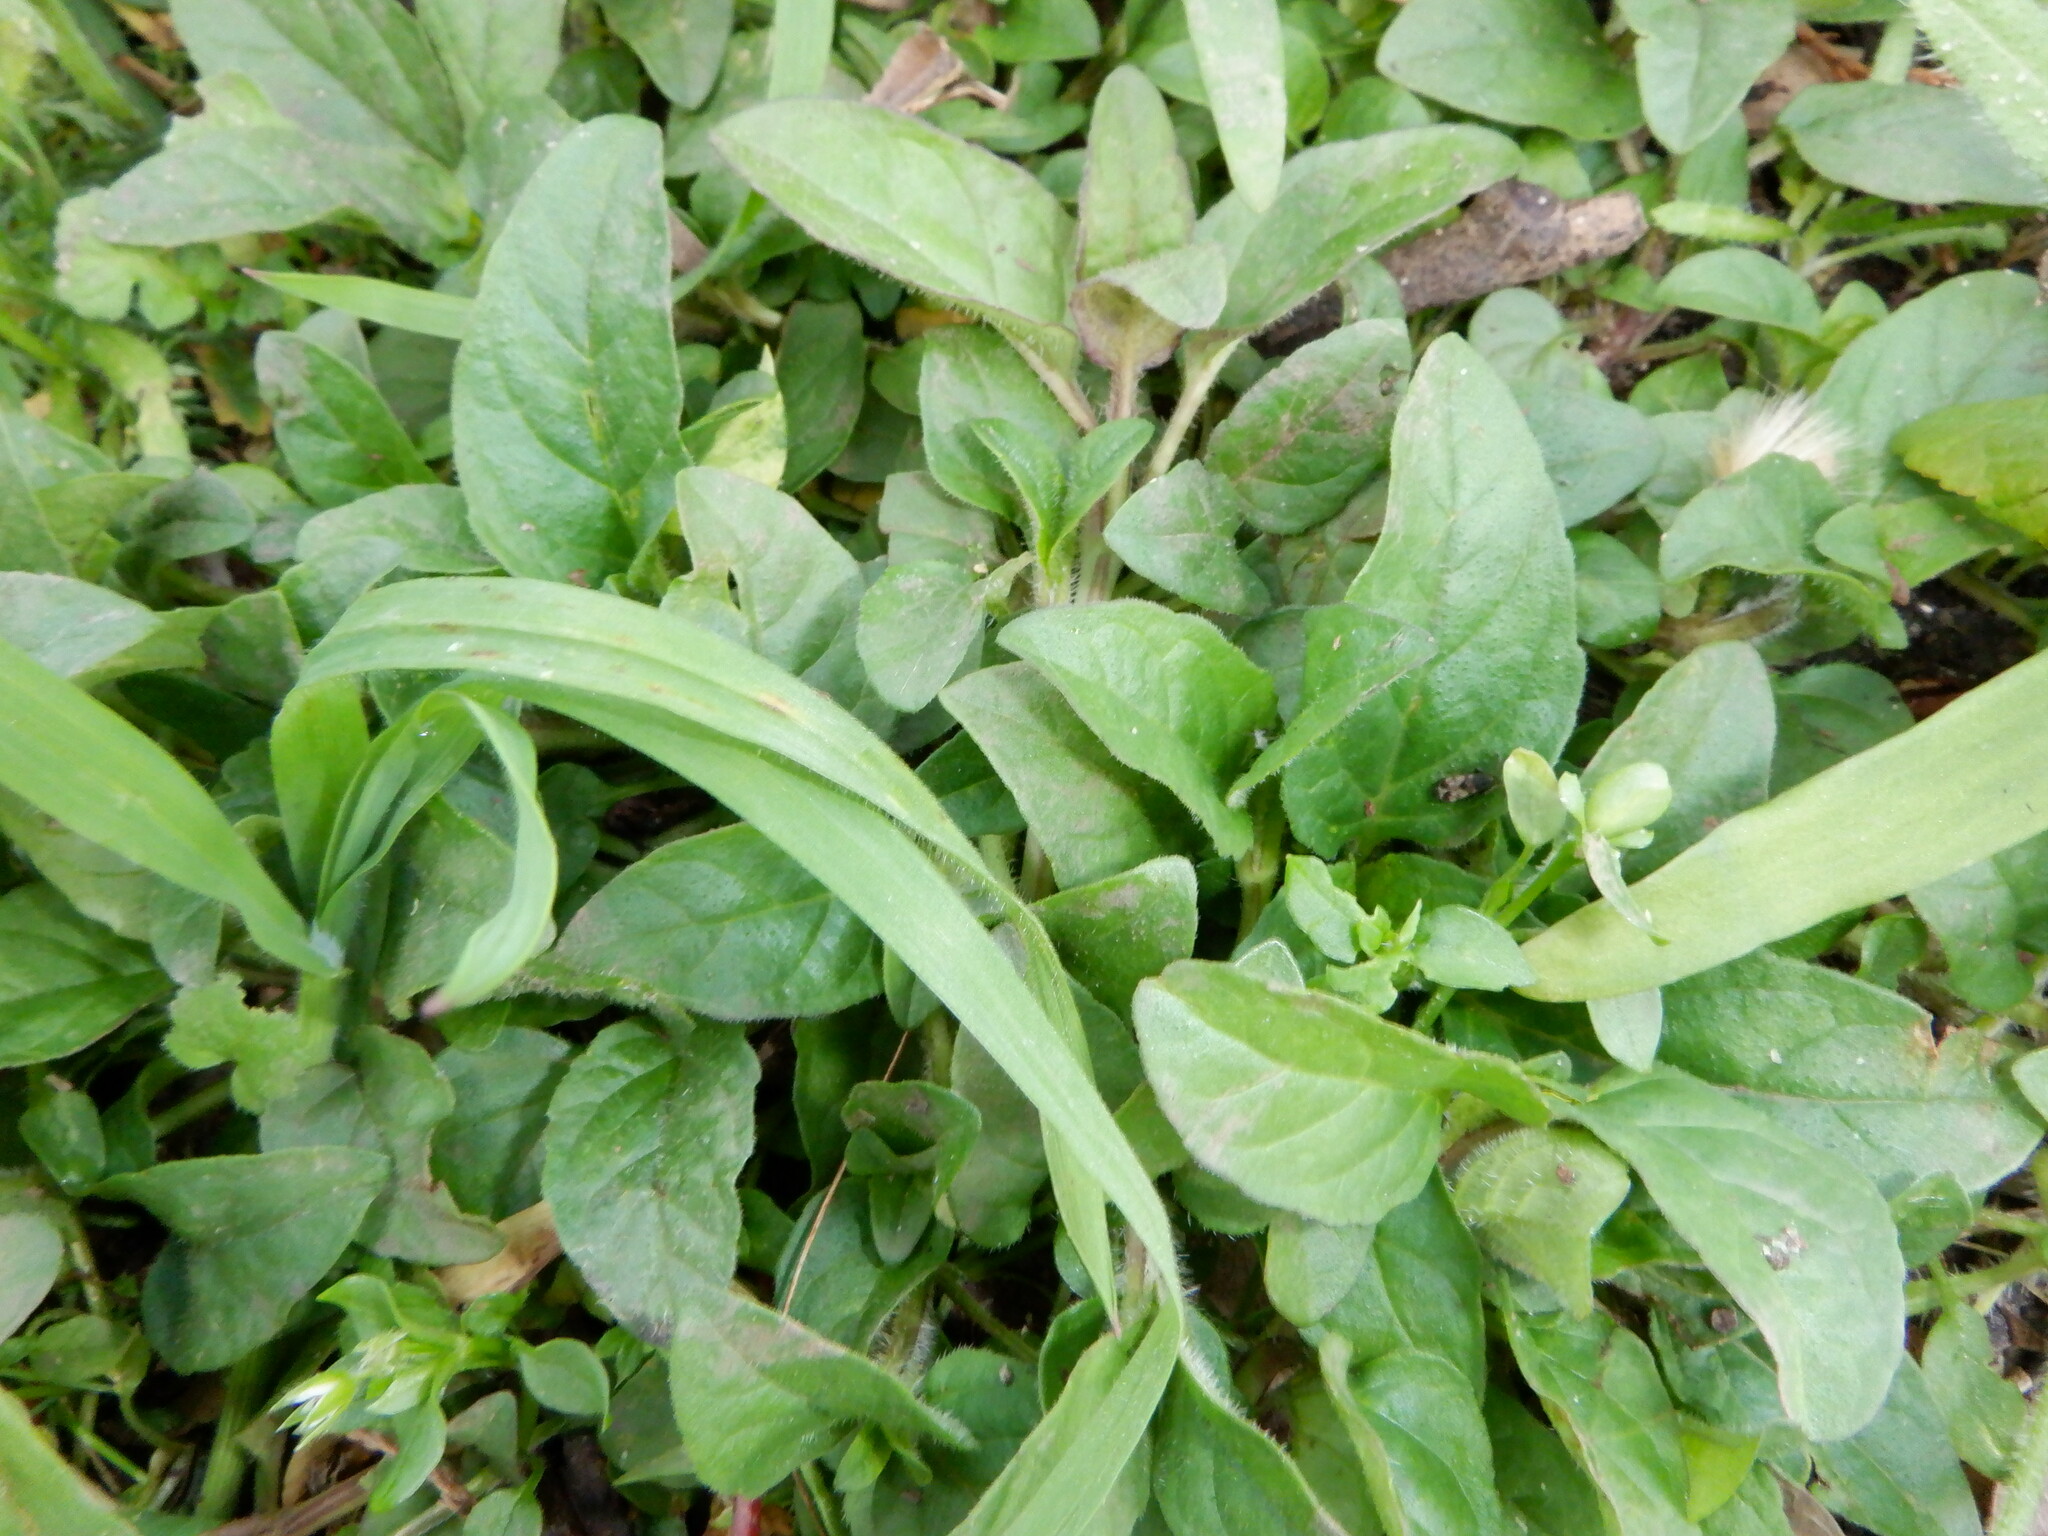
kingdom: Plantae
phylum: Tracheophyta
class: Magnoliopsida
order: Lamiales
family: Lamiaceae
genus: Prunella
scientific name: Prunella vulgaris
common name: Heal-all
